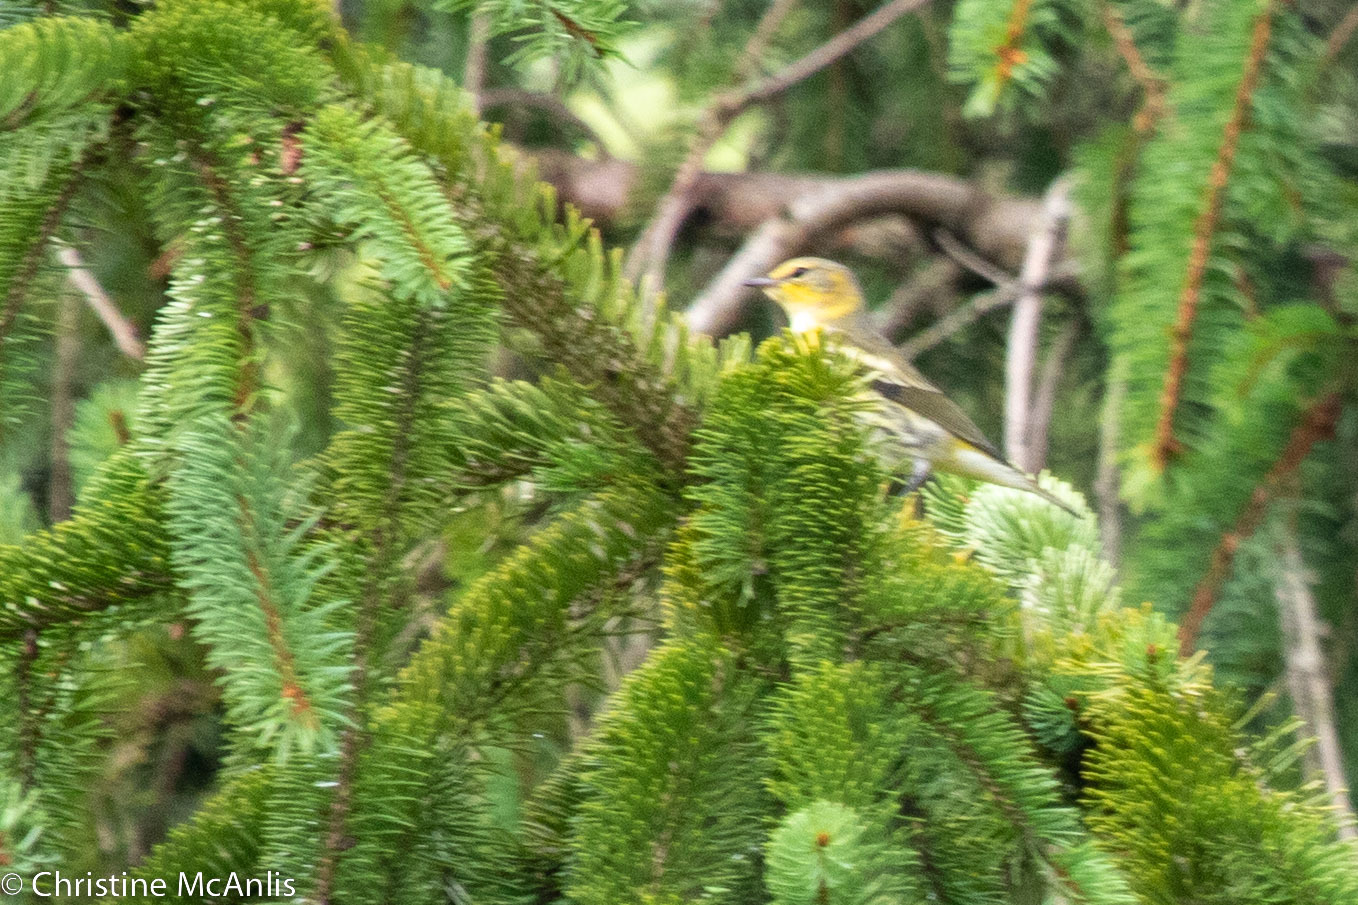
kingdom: Animalia
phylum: Chordata
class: Aves
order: Passeriformes
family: Parulidae
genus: Setophaga
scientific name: Setophaga tigrina
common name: Cape may warbler
